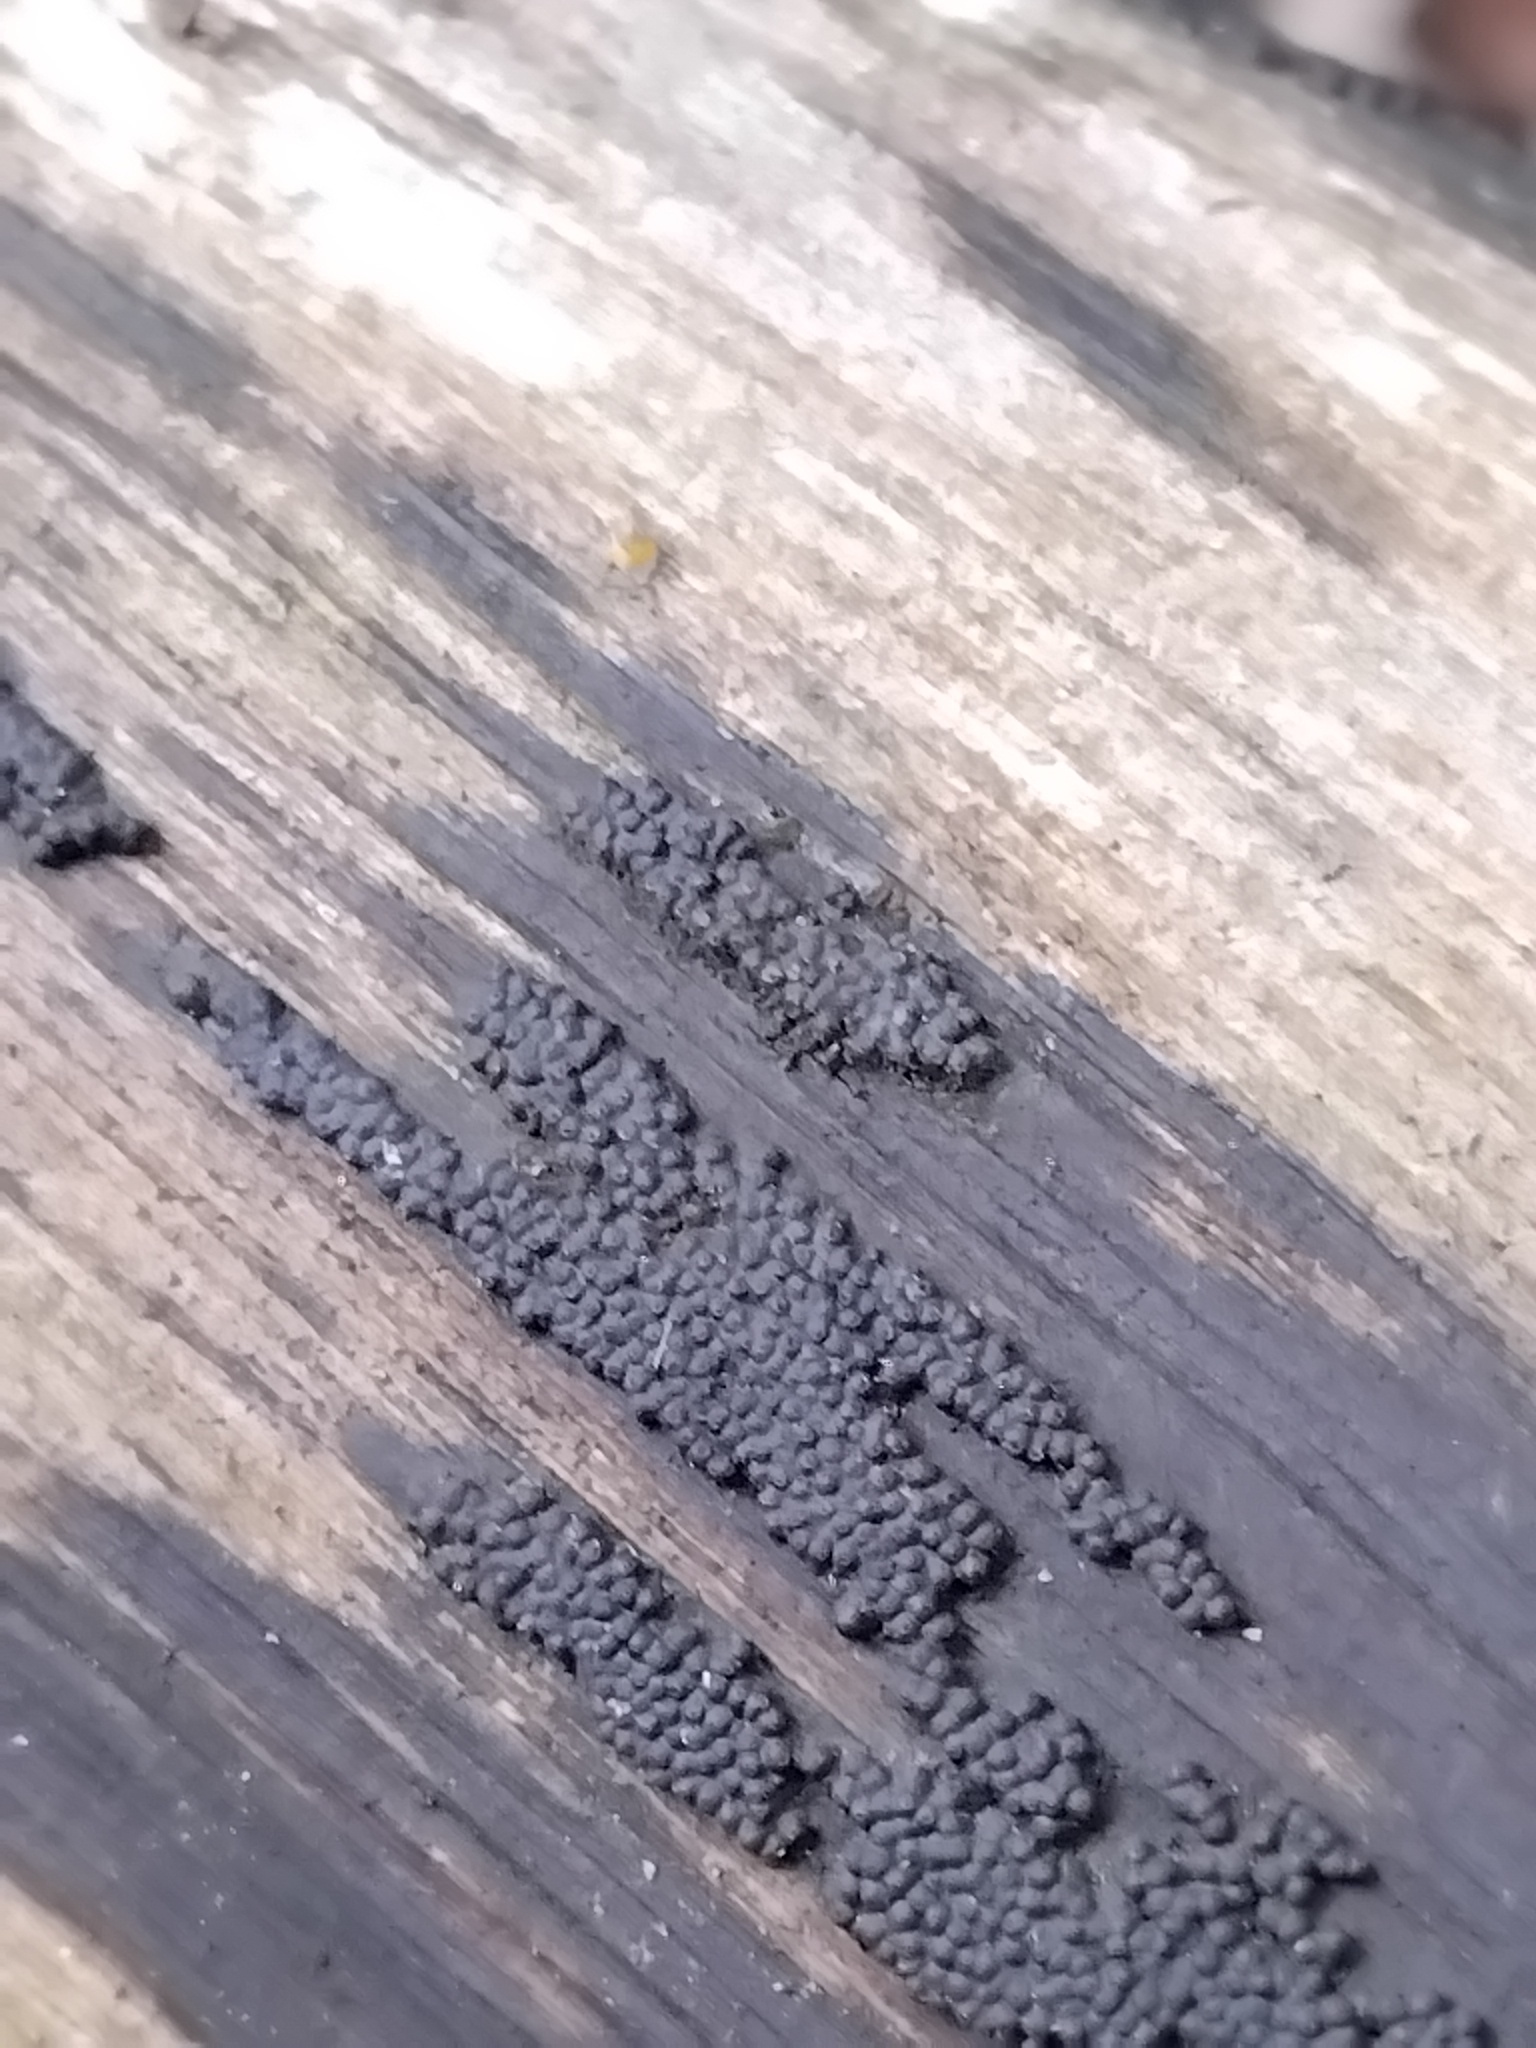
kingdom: Fungi
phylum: Ascomycota
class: Sordariomycetes
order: Xylariales
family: Hypoxylaceae
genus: Annulohypoxylon
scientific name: Annulohypoxylon bovei
